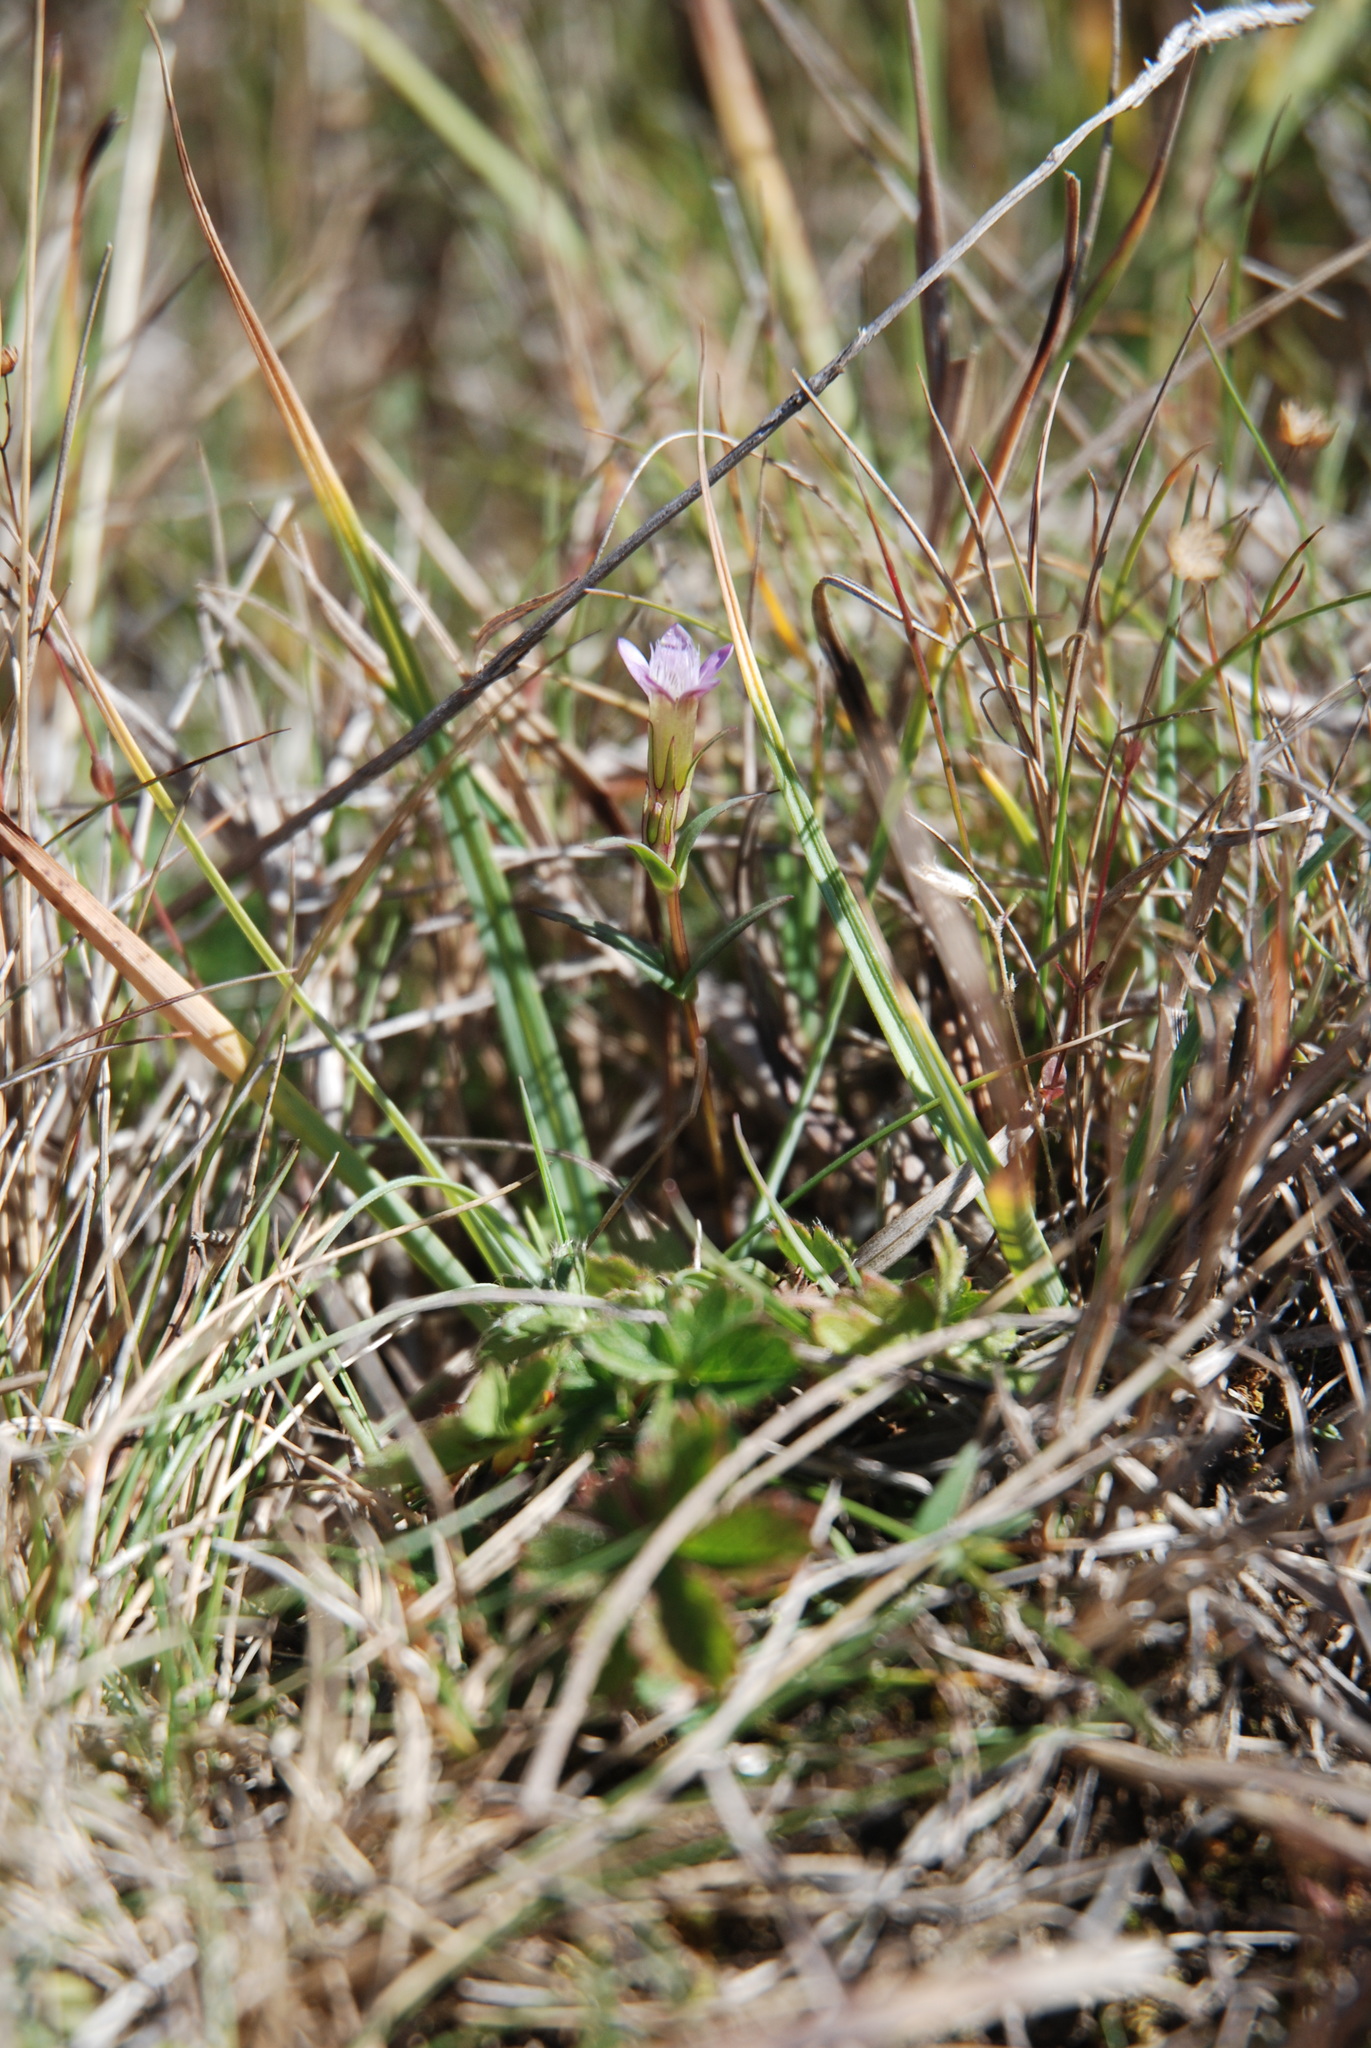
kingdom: Plantae
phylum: Tracheophyta
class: Magnoliopsida
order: Gentianales
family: Gentianaceae
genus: Gentianella
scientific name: Gentianella uliginosa
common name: Dune gentian
